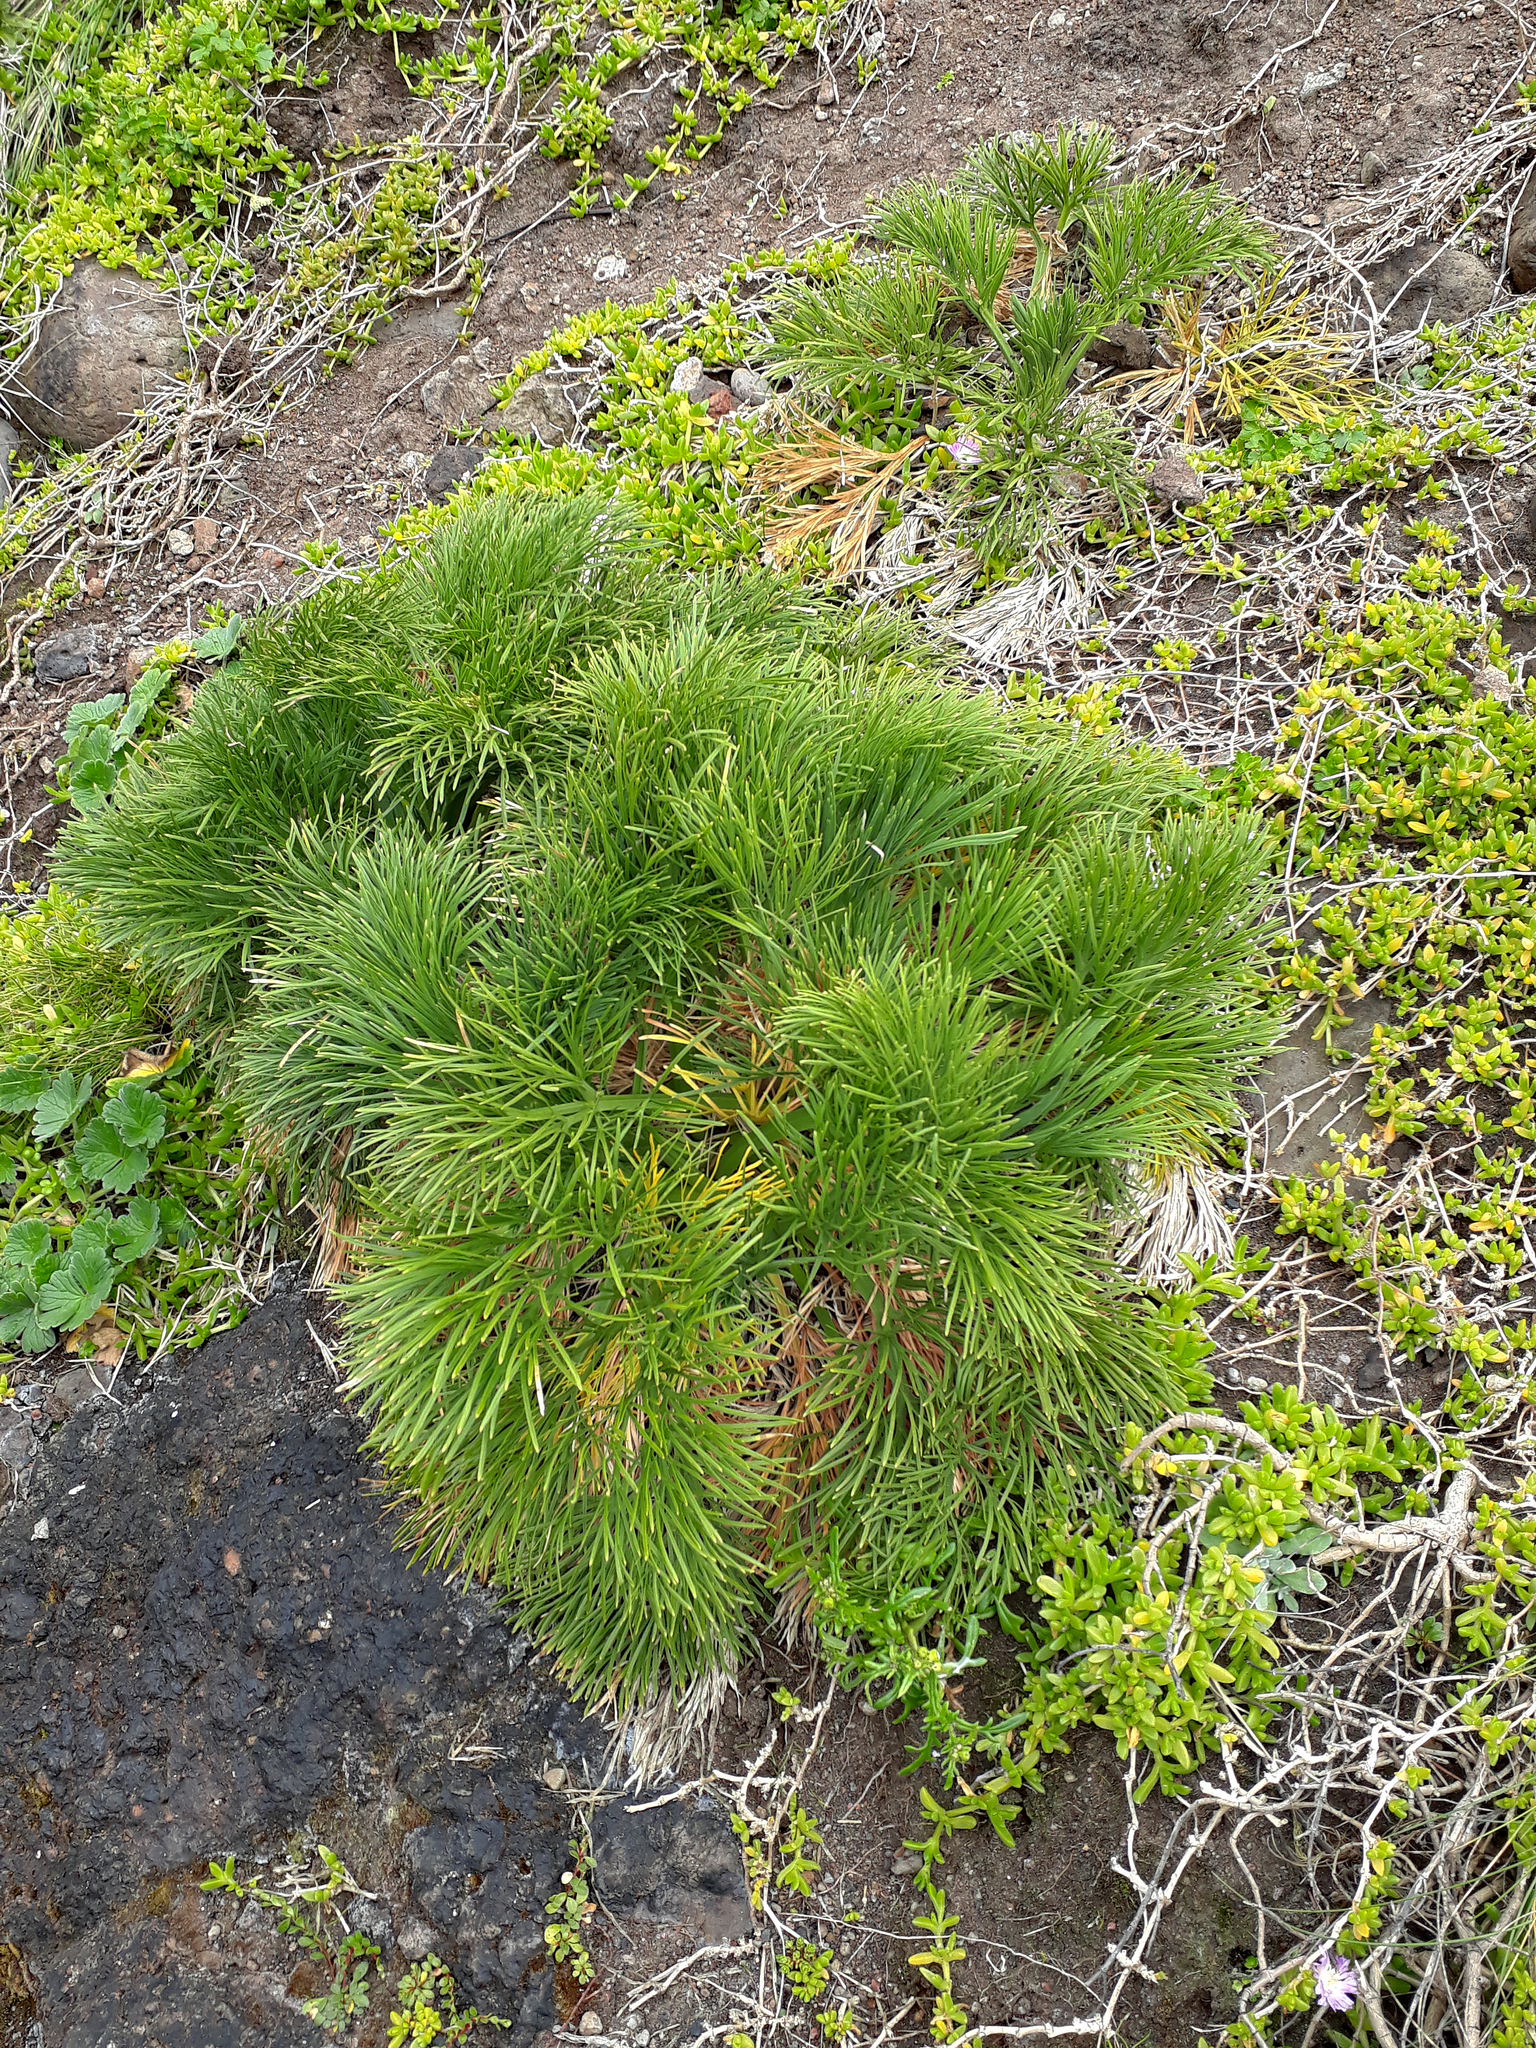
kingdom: Plantae
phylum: Tracheophyta
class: Magnoliopsida
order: Apiales
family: Apiaceae
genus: Aciphylla
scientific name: Aciphylla dieffenbachii
